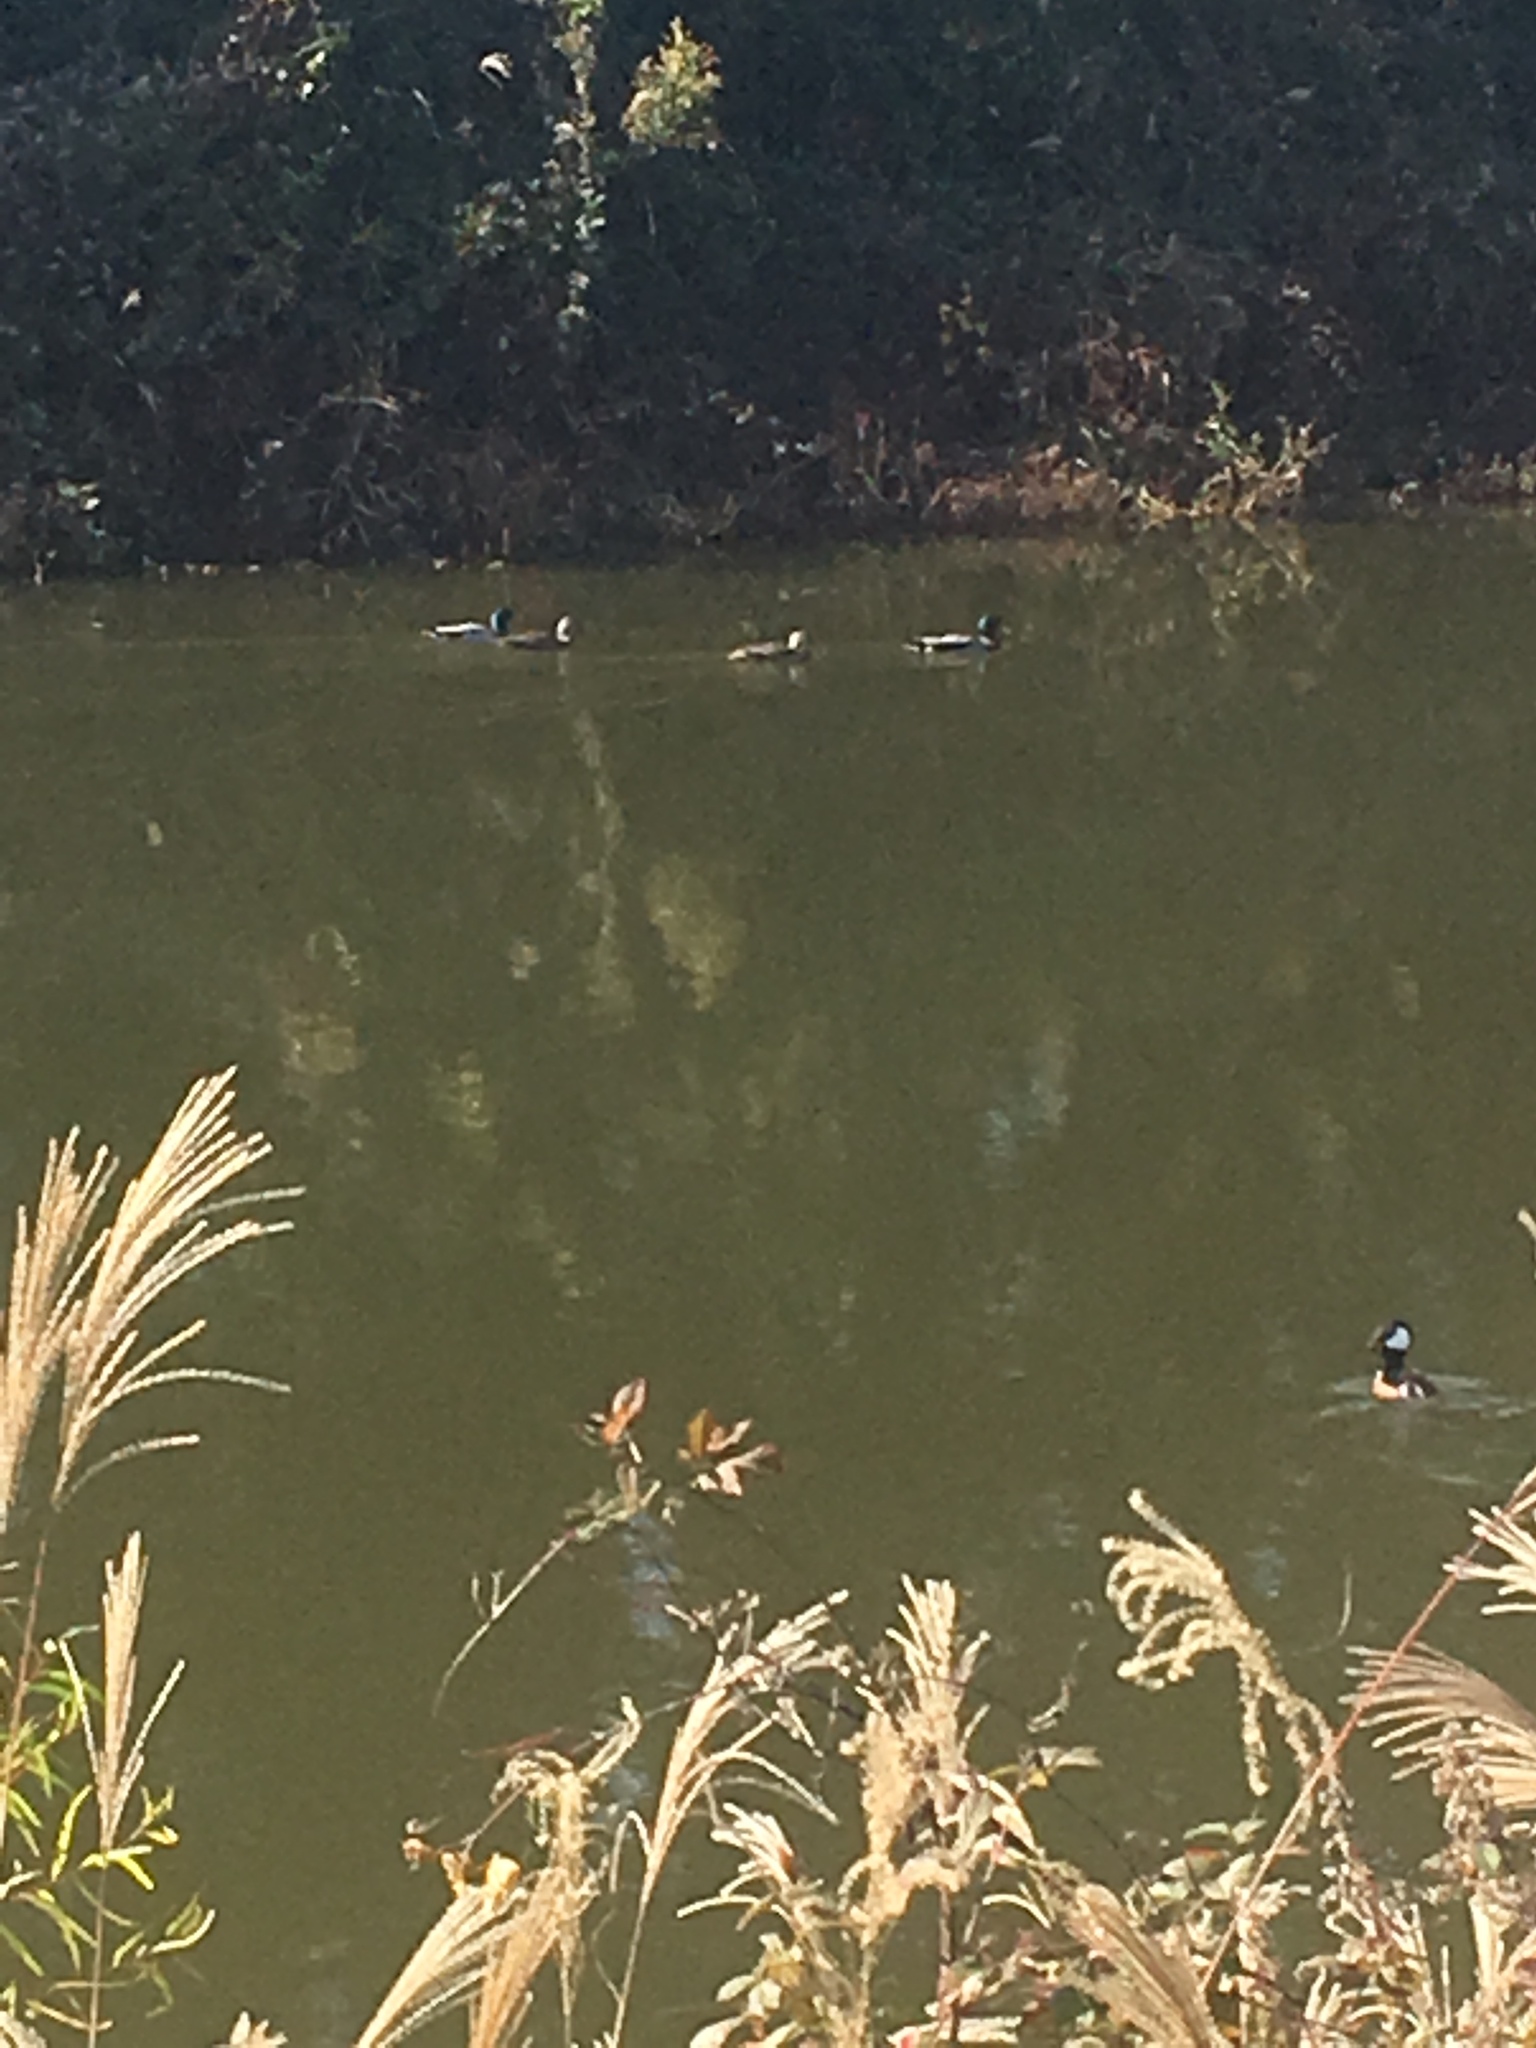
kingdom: Animalia
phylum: Chordata
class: Aves
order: Anseriformes
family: Anatidae
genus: Anas
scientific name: Anas platyrhynchos
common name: Mallard
